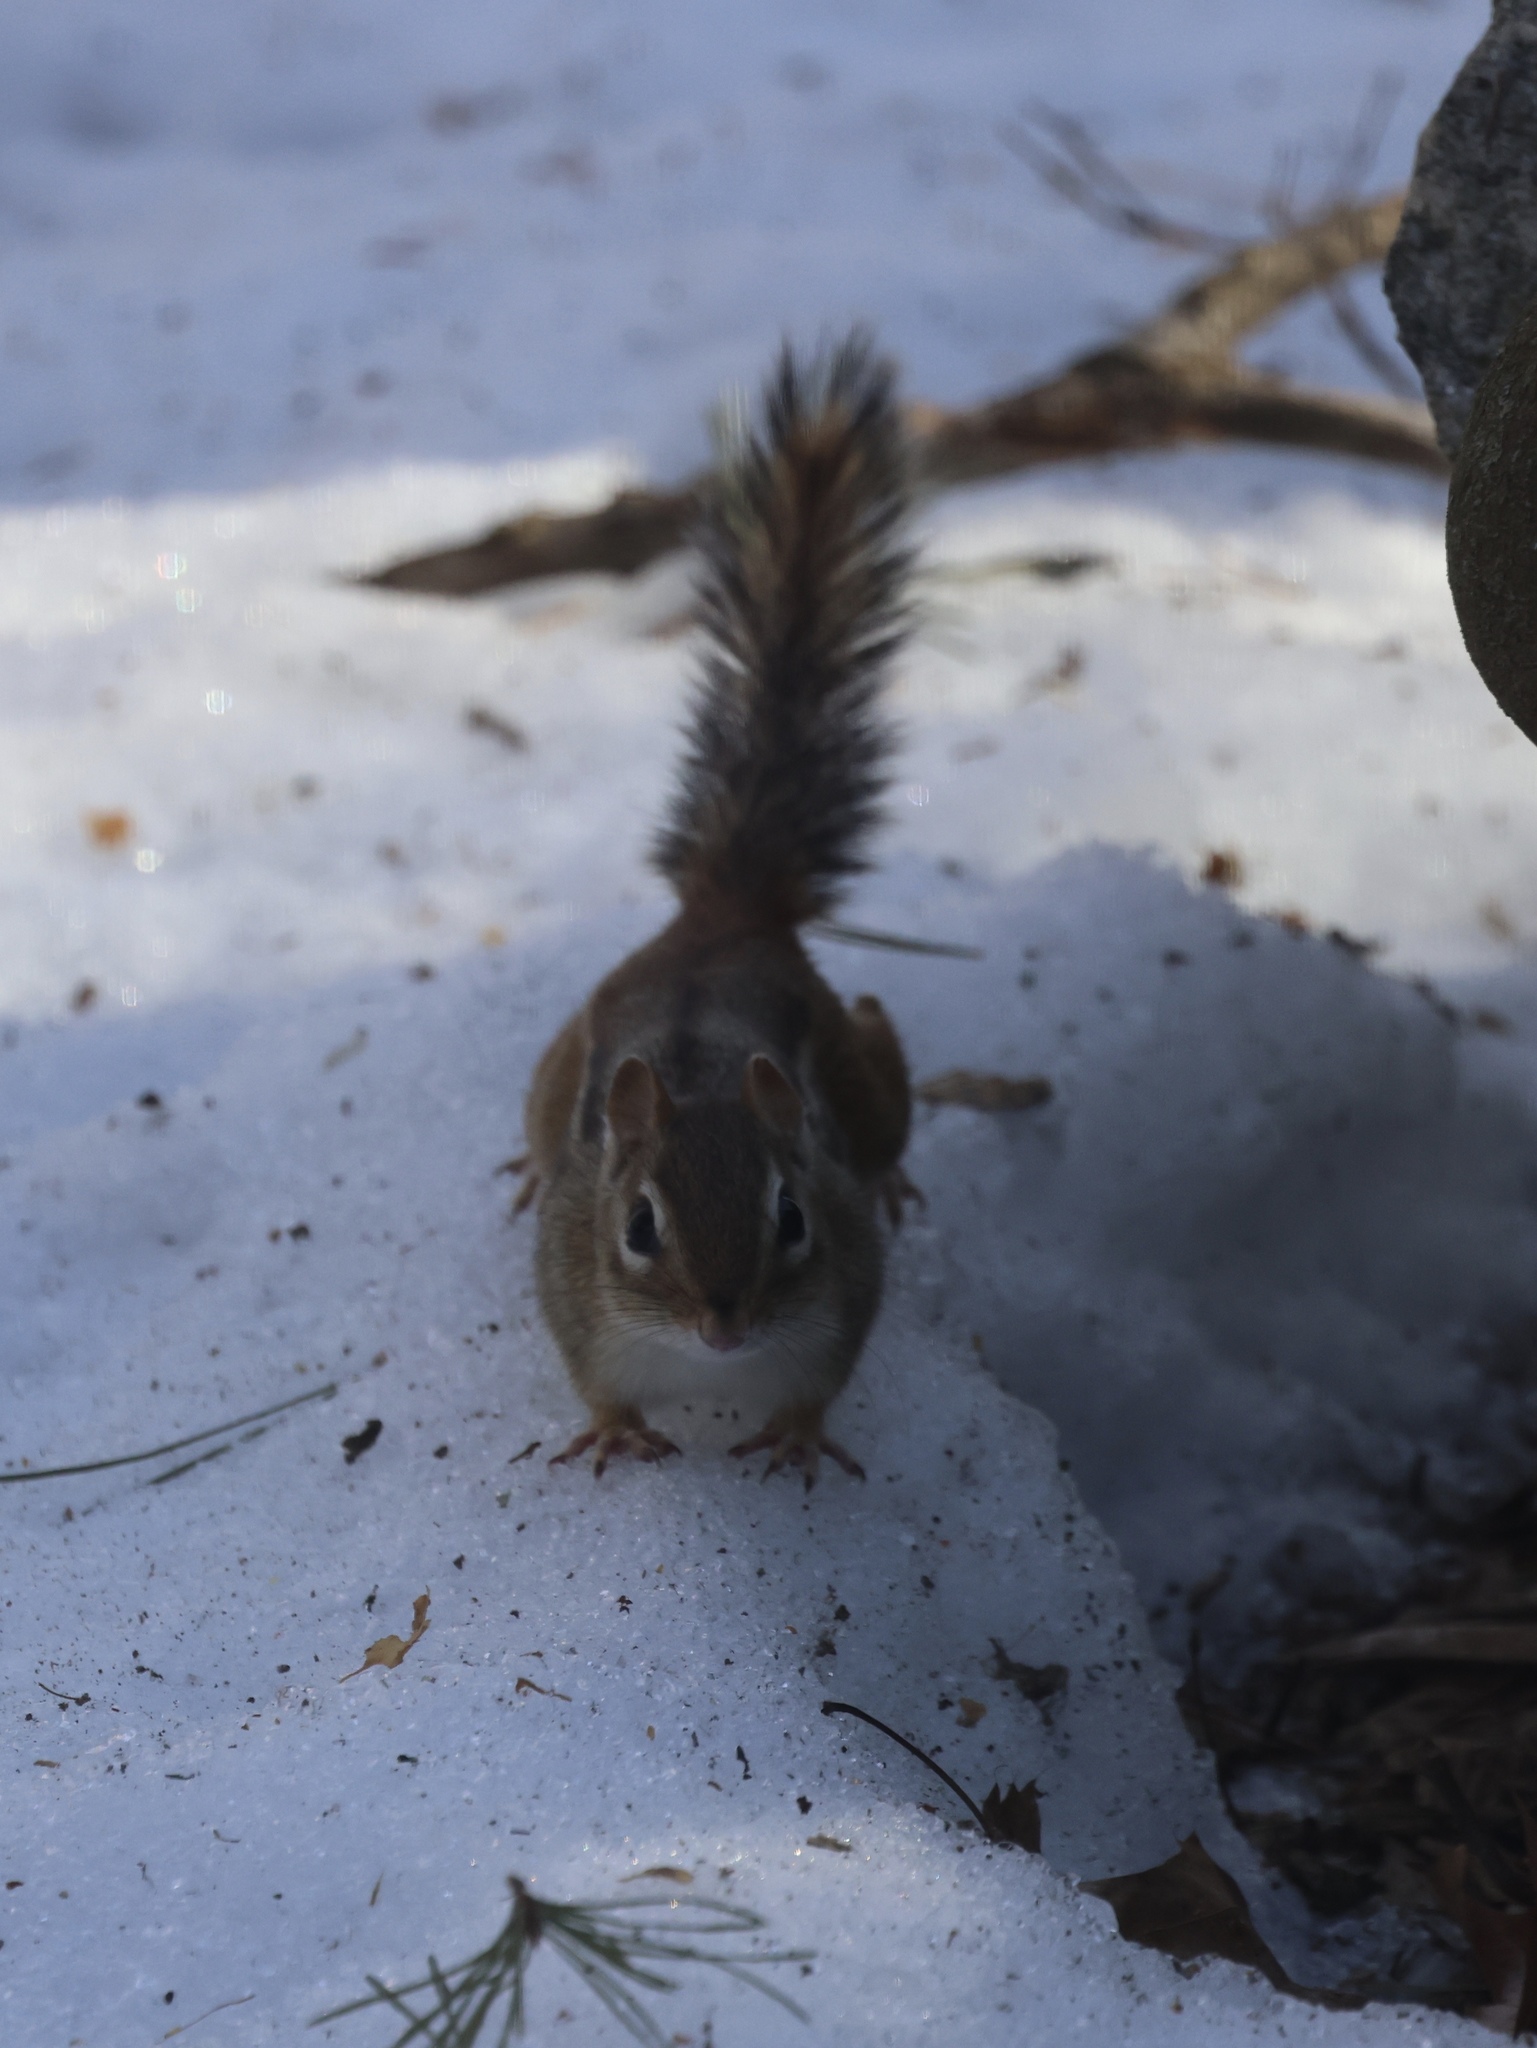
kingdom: Animalia
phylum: Chordata
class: Mammalia
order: Rodentia
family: Sciuridae
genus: Tamias
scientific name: Tamias striatus
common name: Eastern chipmunk
